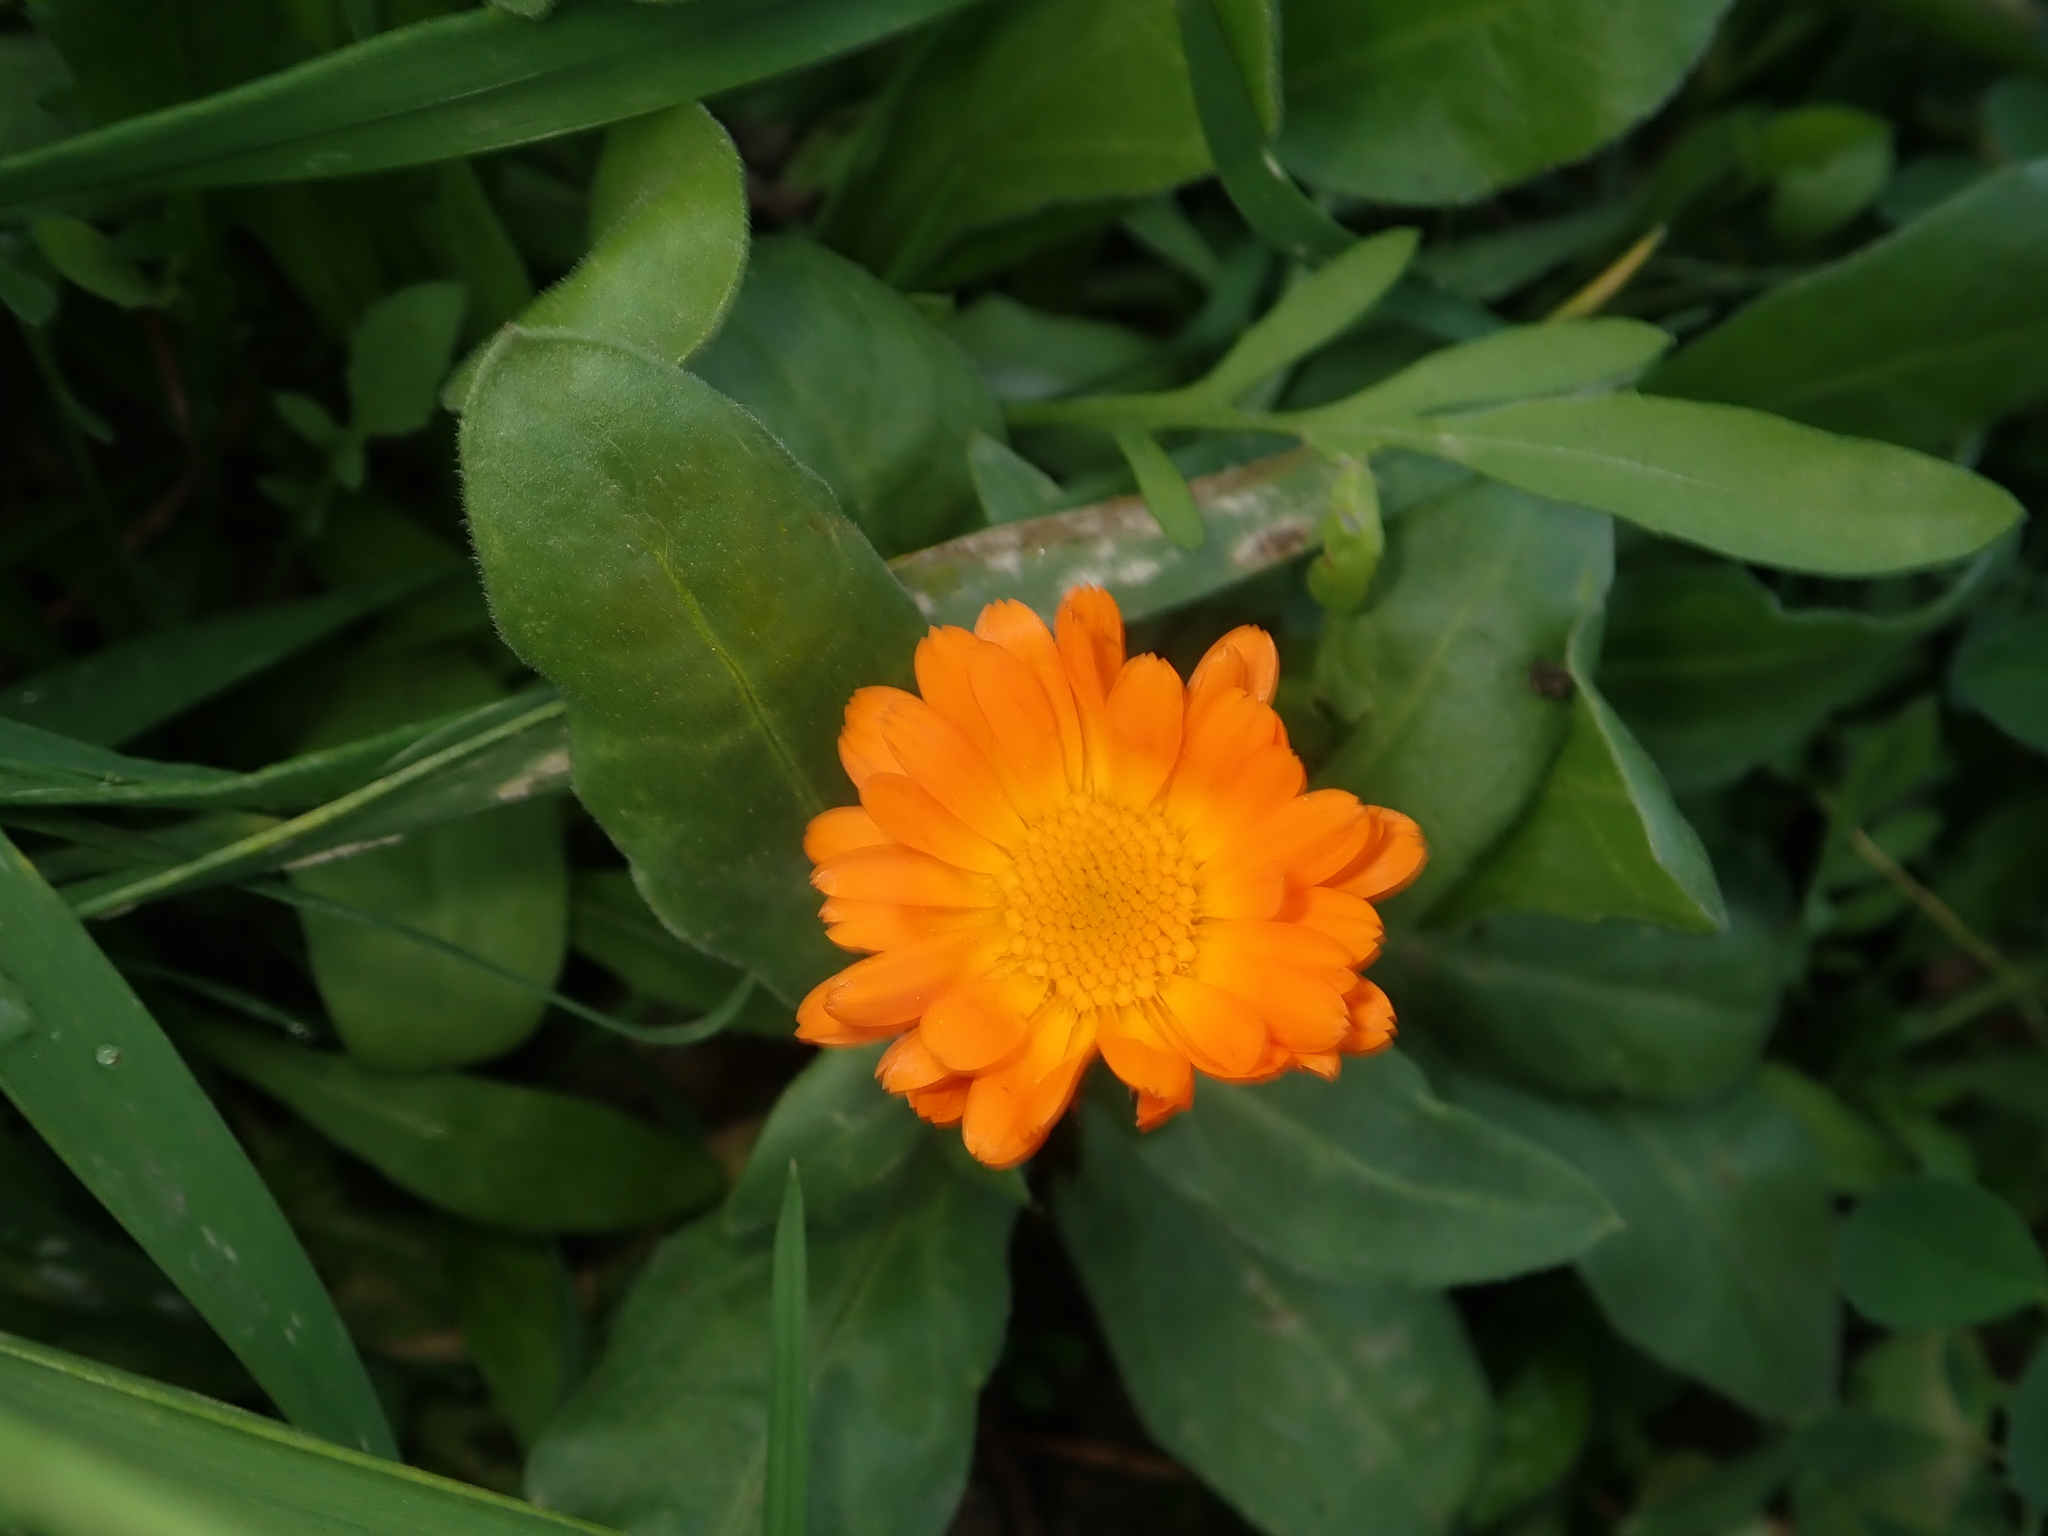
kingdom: Plantae
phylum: Tracheophyta
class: Magnoliopsida
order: Asterales
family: Asteraceae
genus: Calendula
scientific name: Calendula officinalis
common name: Pot marigold
